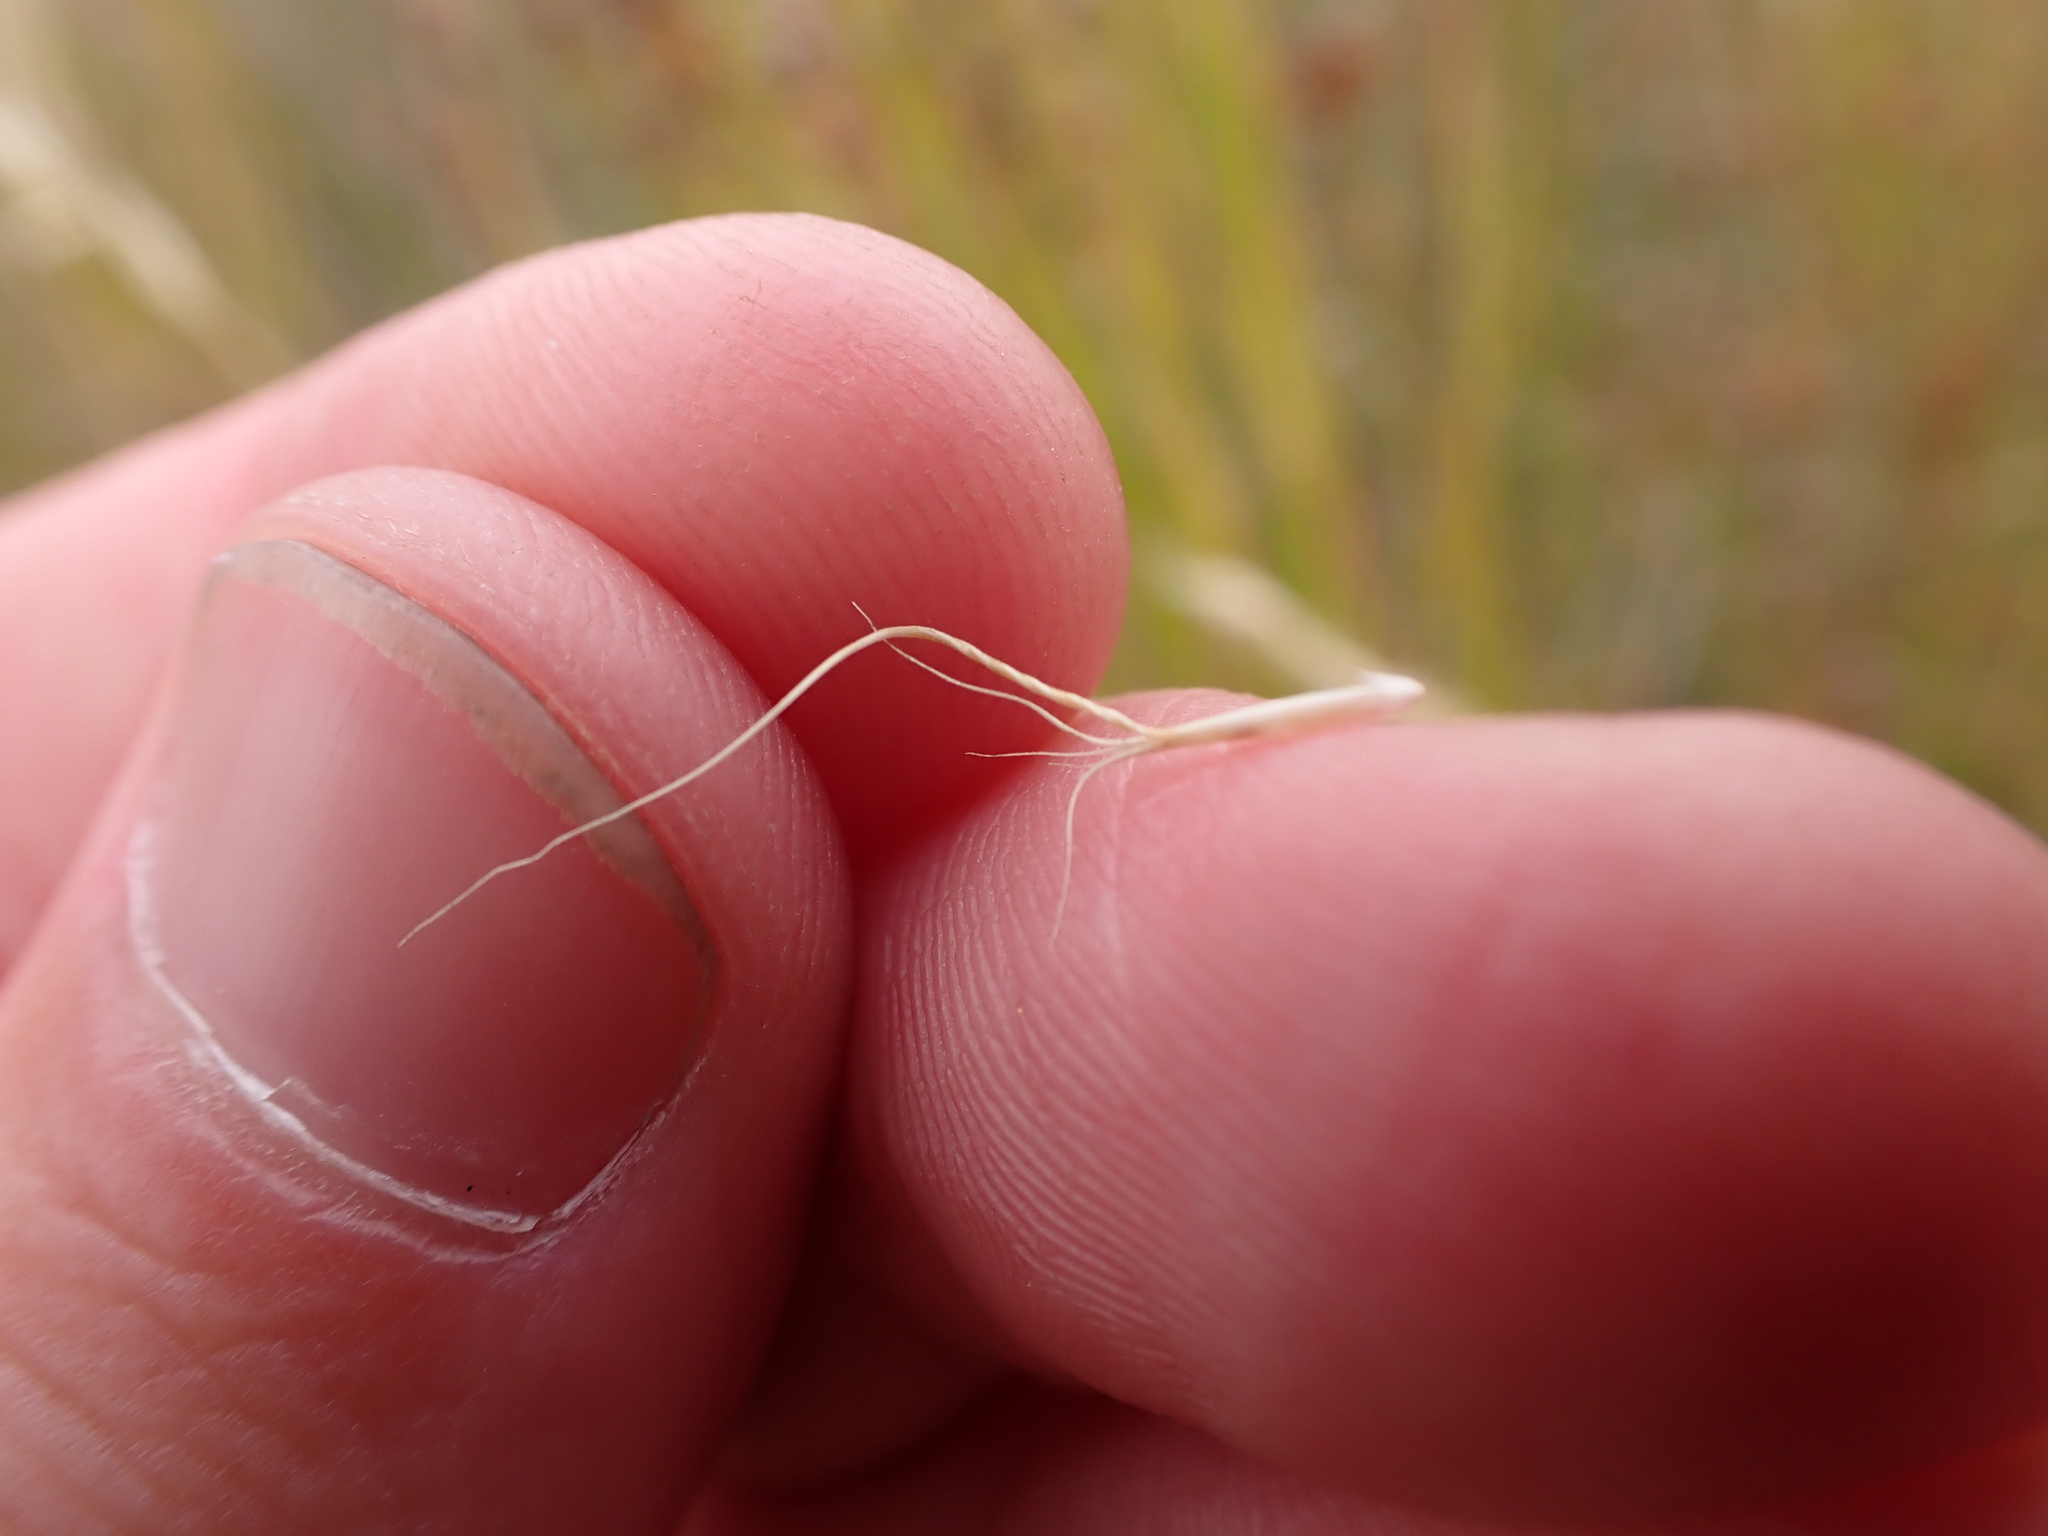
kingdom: Plantae
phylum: Tracheophyta
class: Liliopsida
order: Poales
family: Poaceae
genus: Pentapogon
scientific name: Pentapogon quadrifidus
